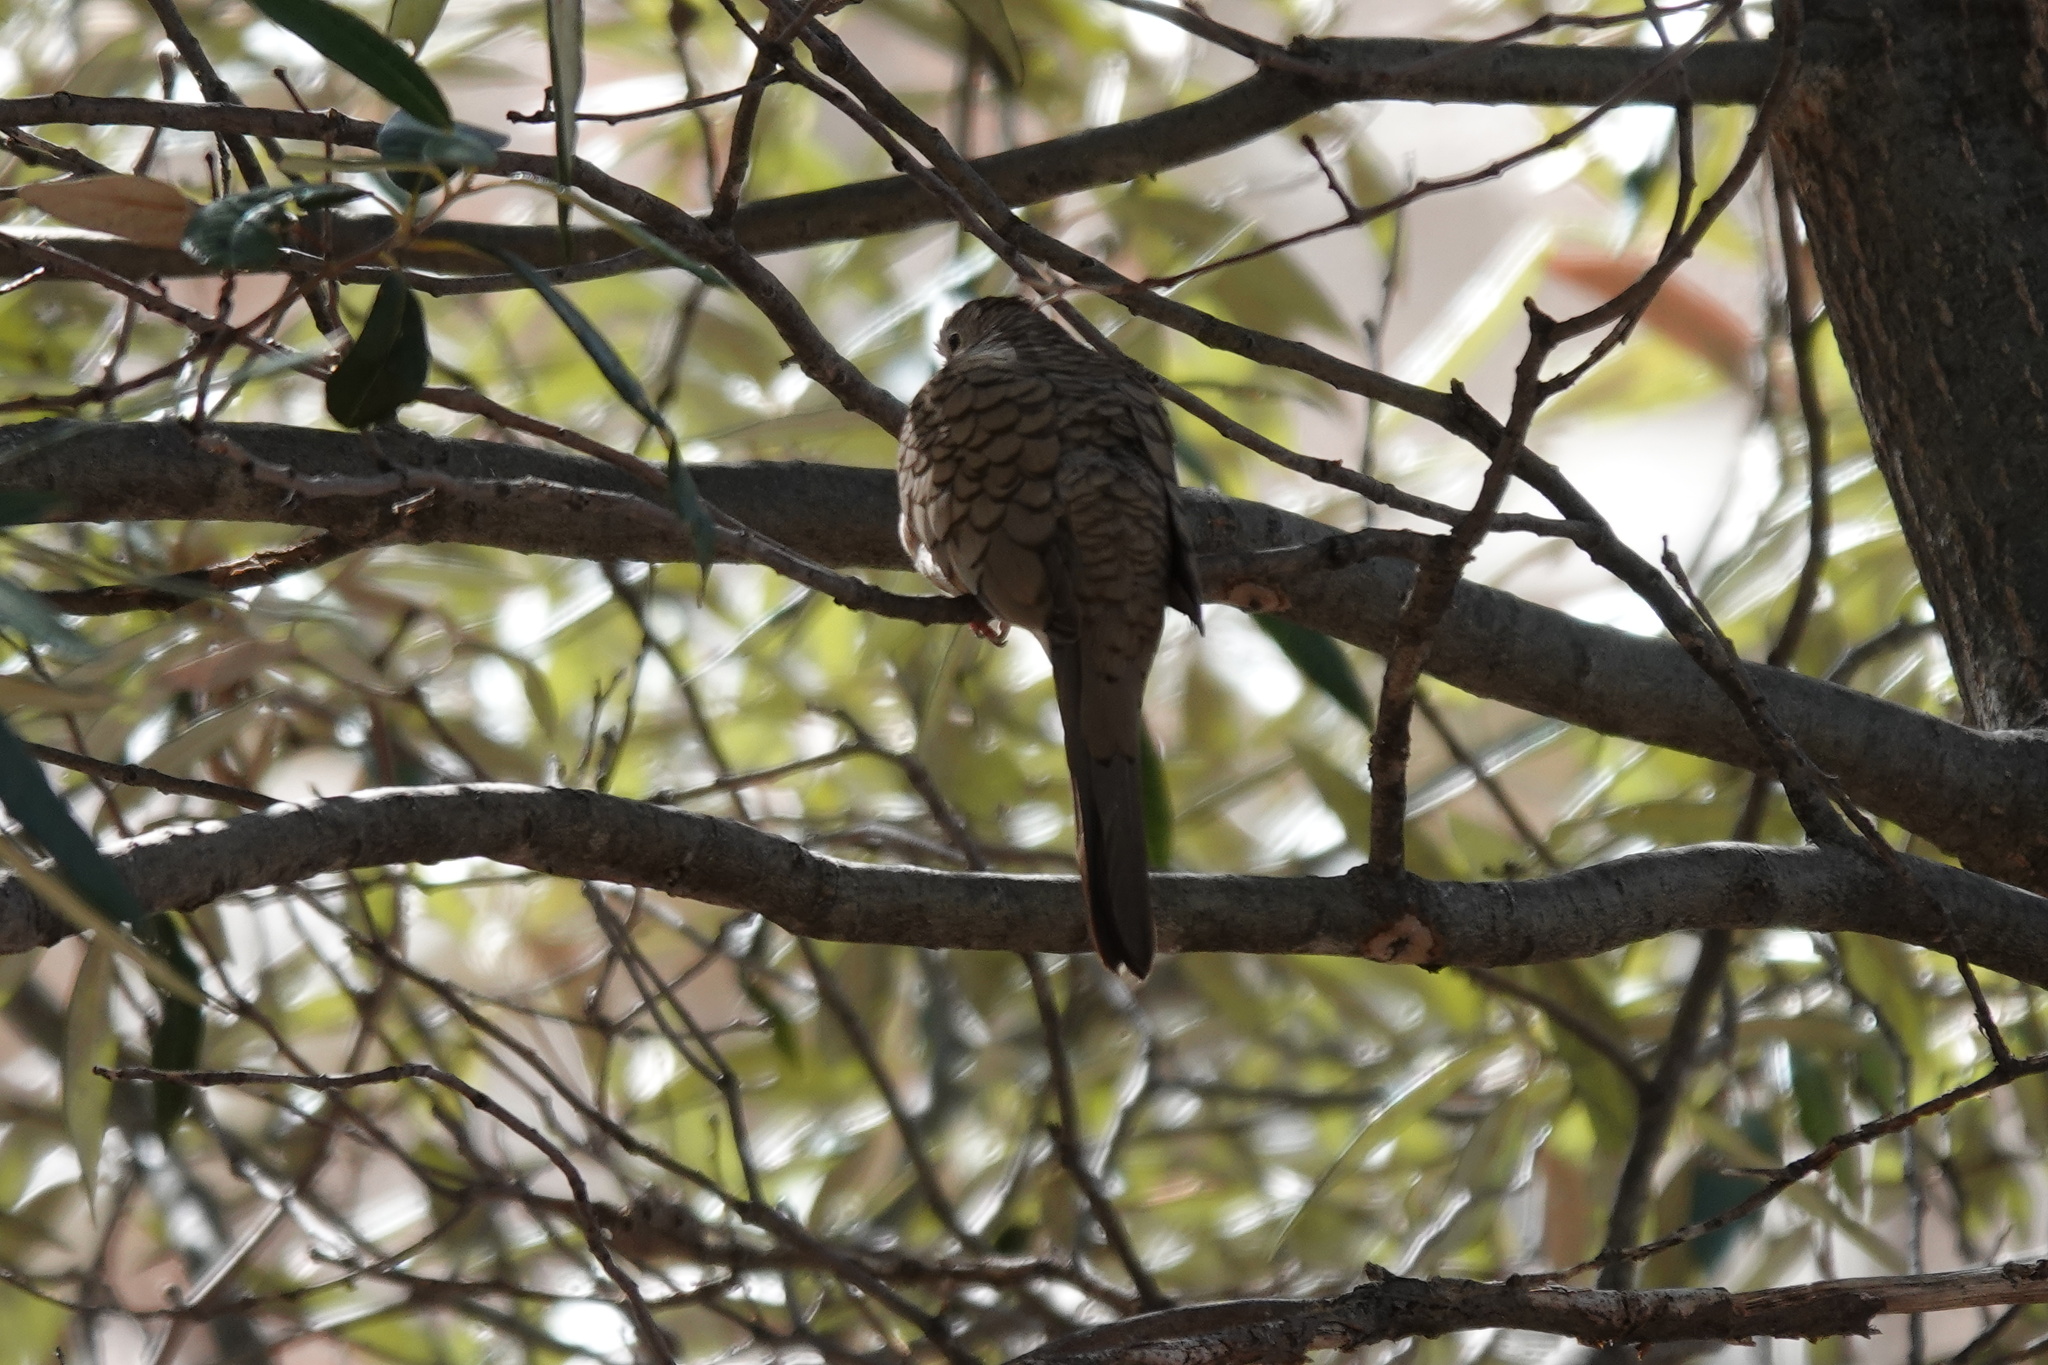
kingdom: Animalia
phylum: Chordata
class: Aves
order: Columbiformes
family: Columbidae
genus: Columbina
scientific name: Columbina inca
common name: Inca dove
